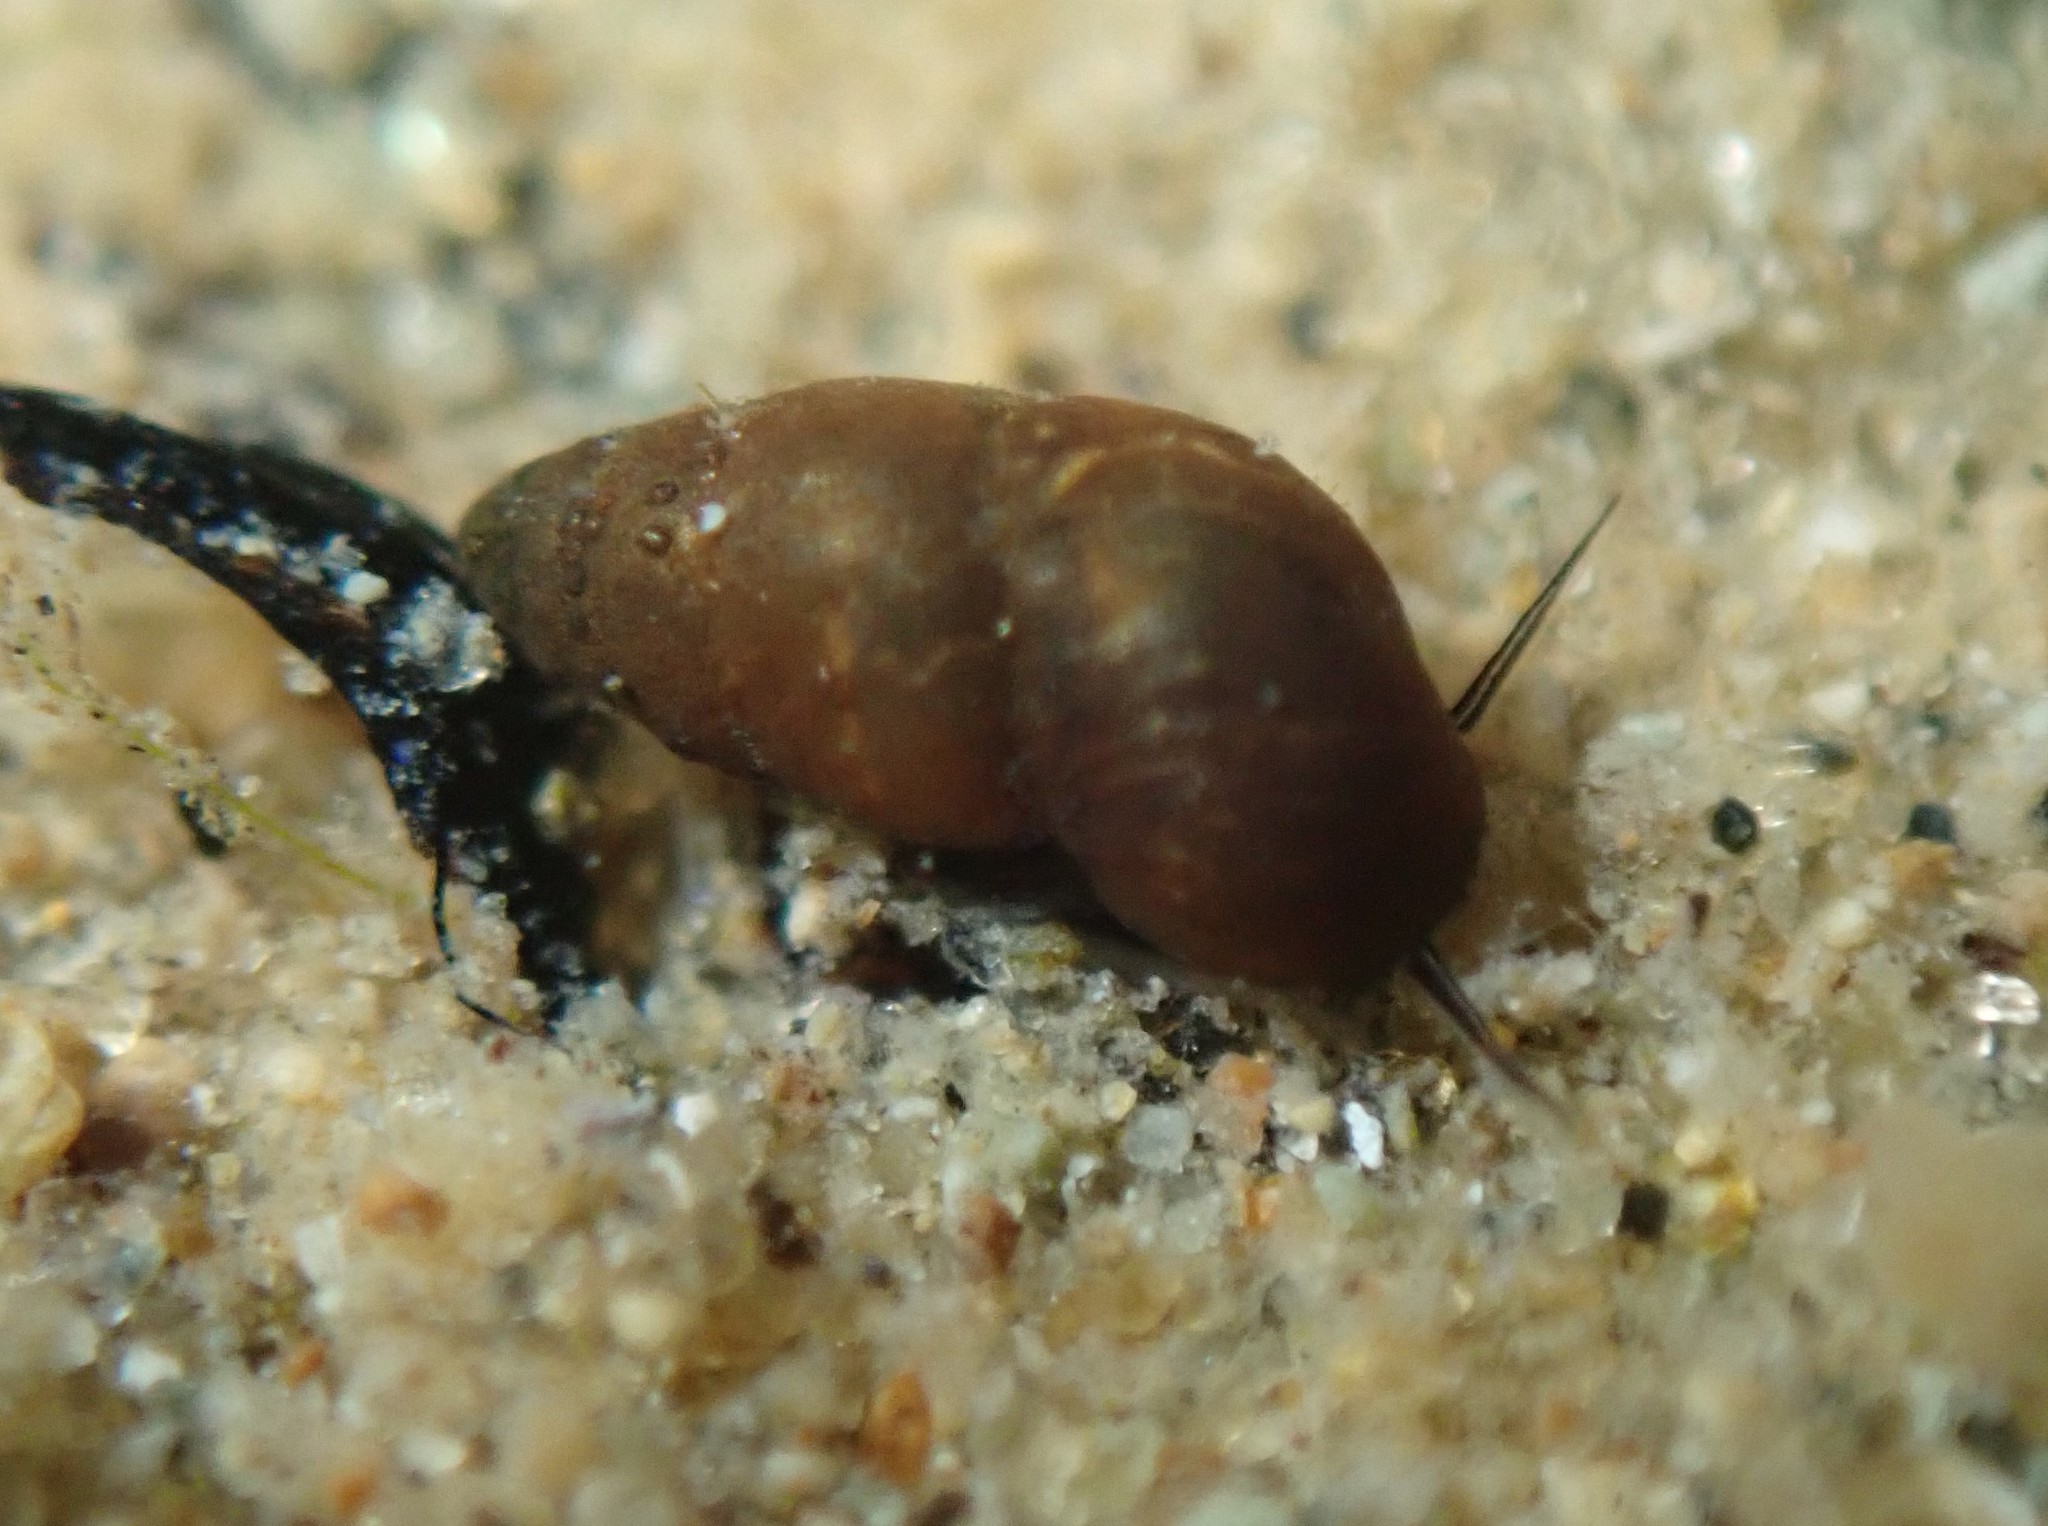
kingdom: Animalia
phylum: Mollusca
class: Gastropoda
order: Littorinimorpha
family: Tateidae
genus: Halopyrgus
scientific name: Halopyrgus pupoides
